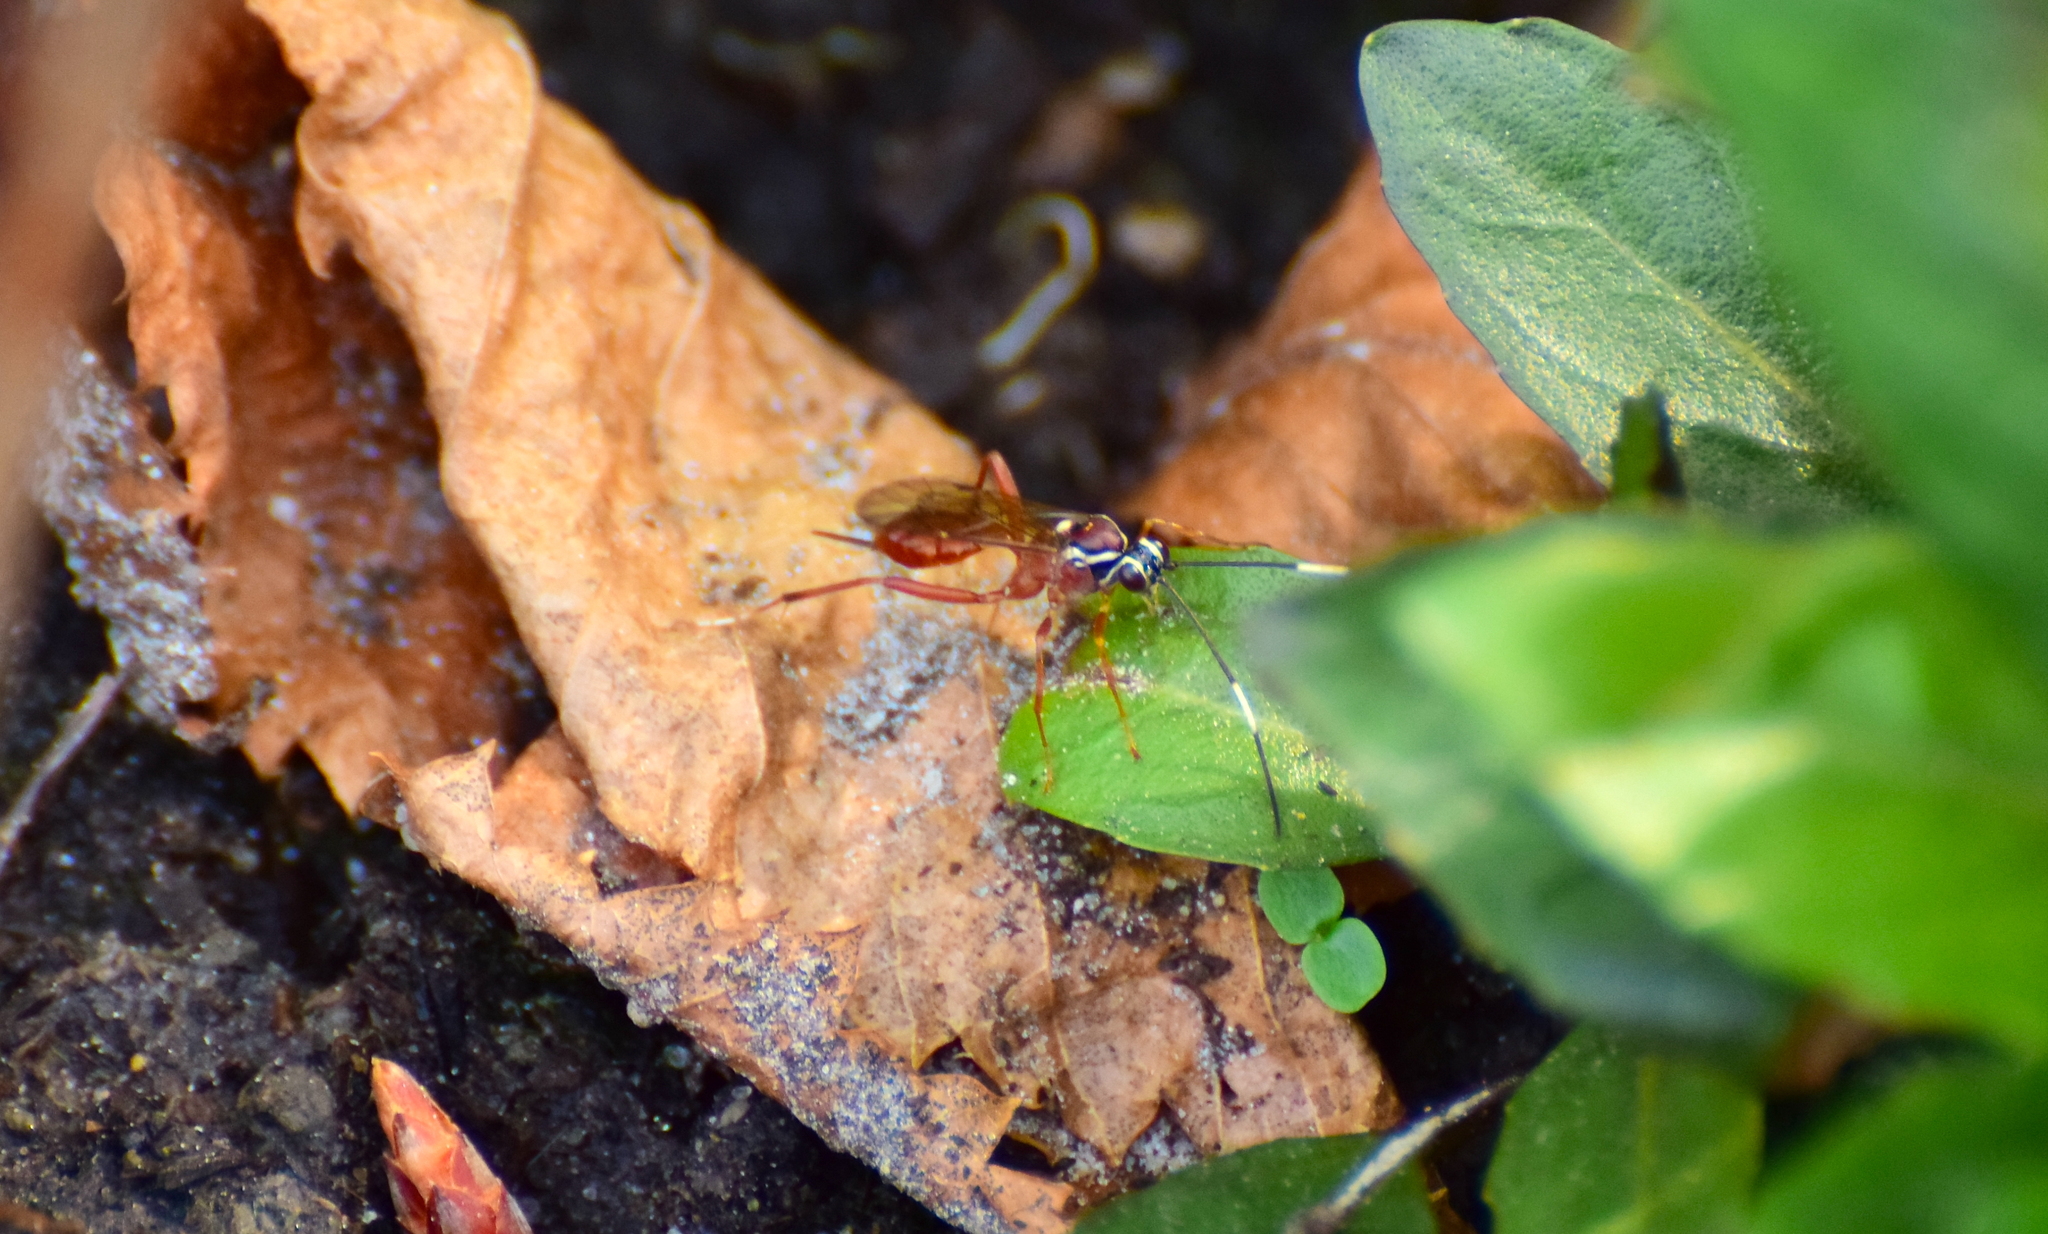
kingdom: Animalia
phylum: Arthropoda
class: Insecta
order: Hymenoptera
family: Ichneumonidae
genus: Ischnus
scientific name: Ischnus inquisitorius
